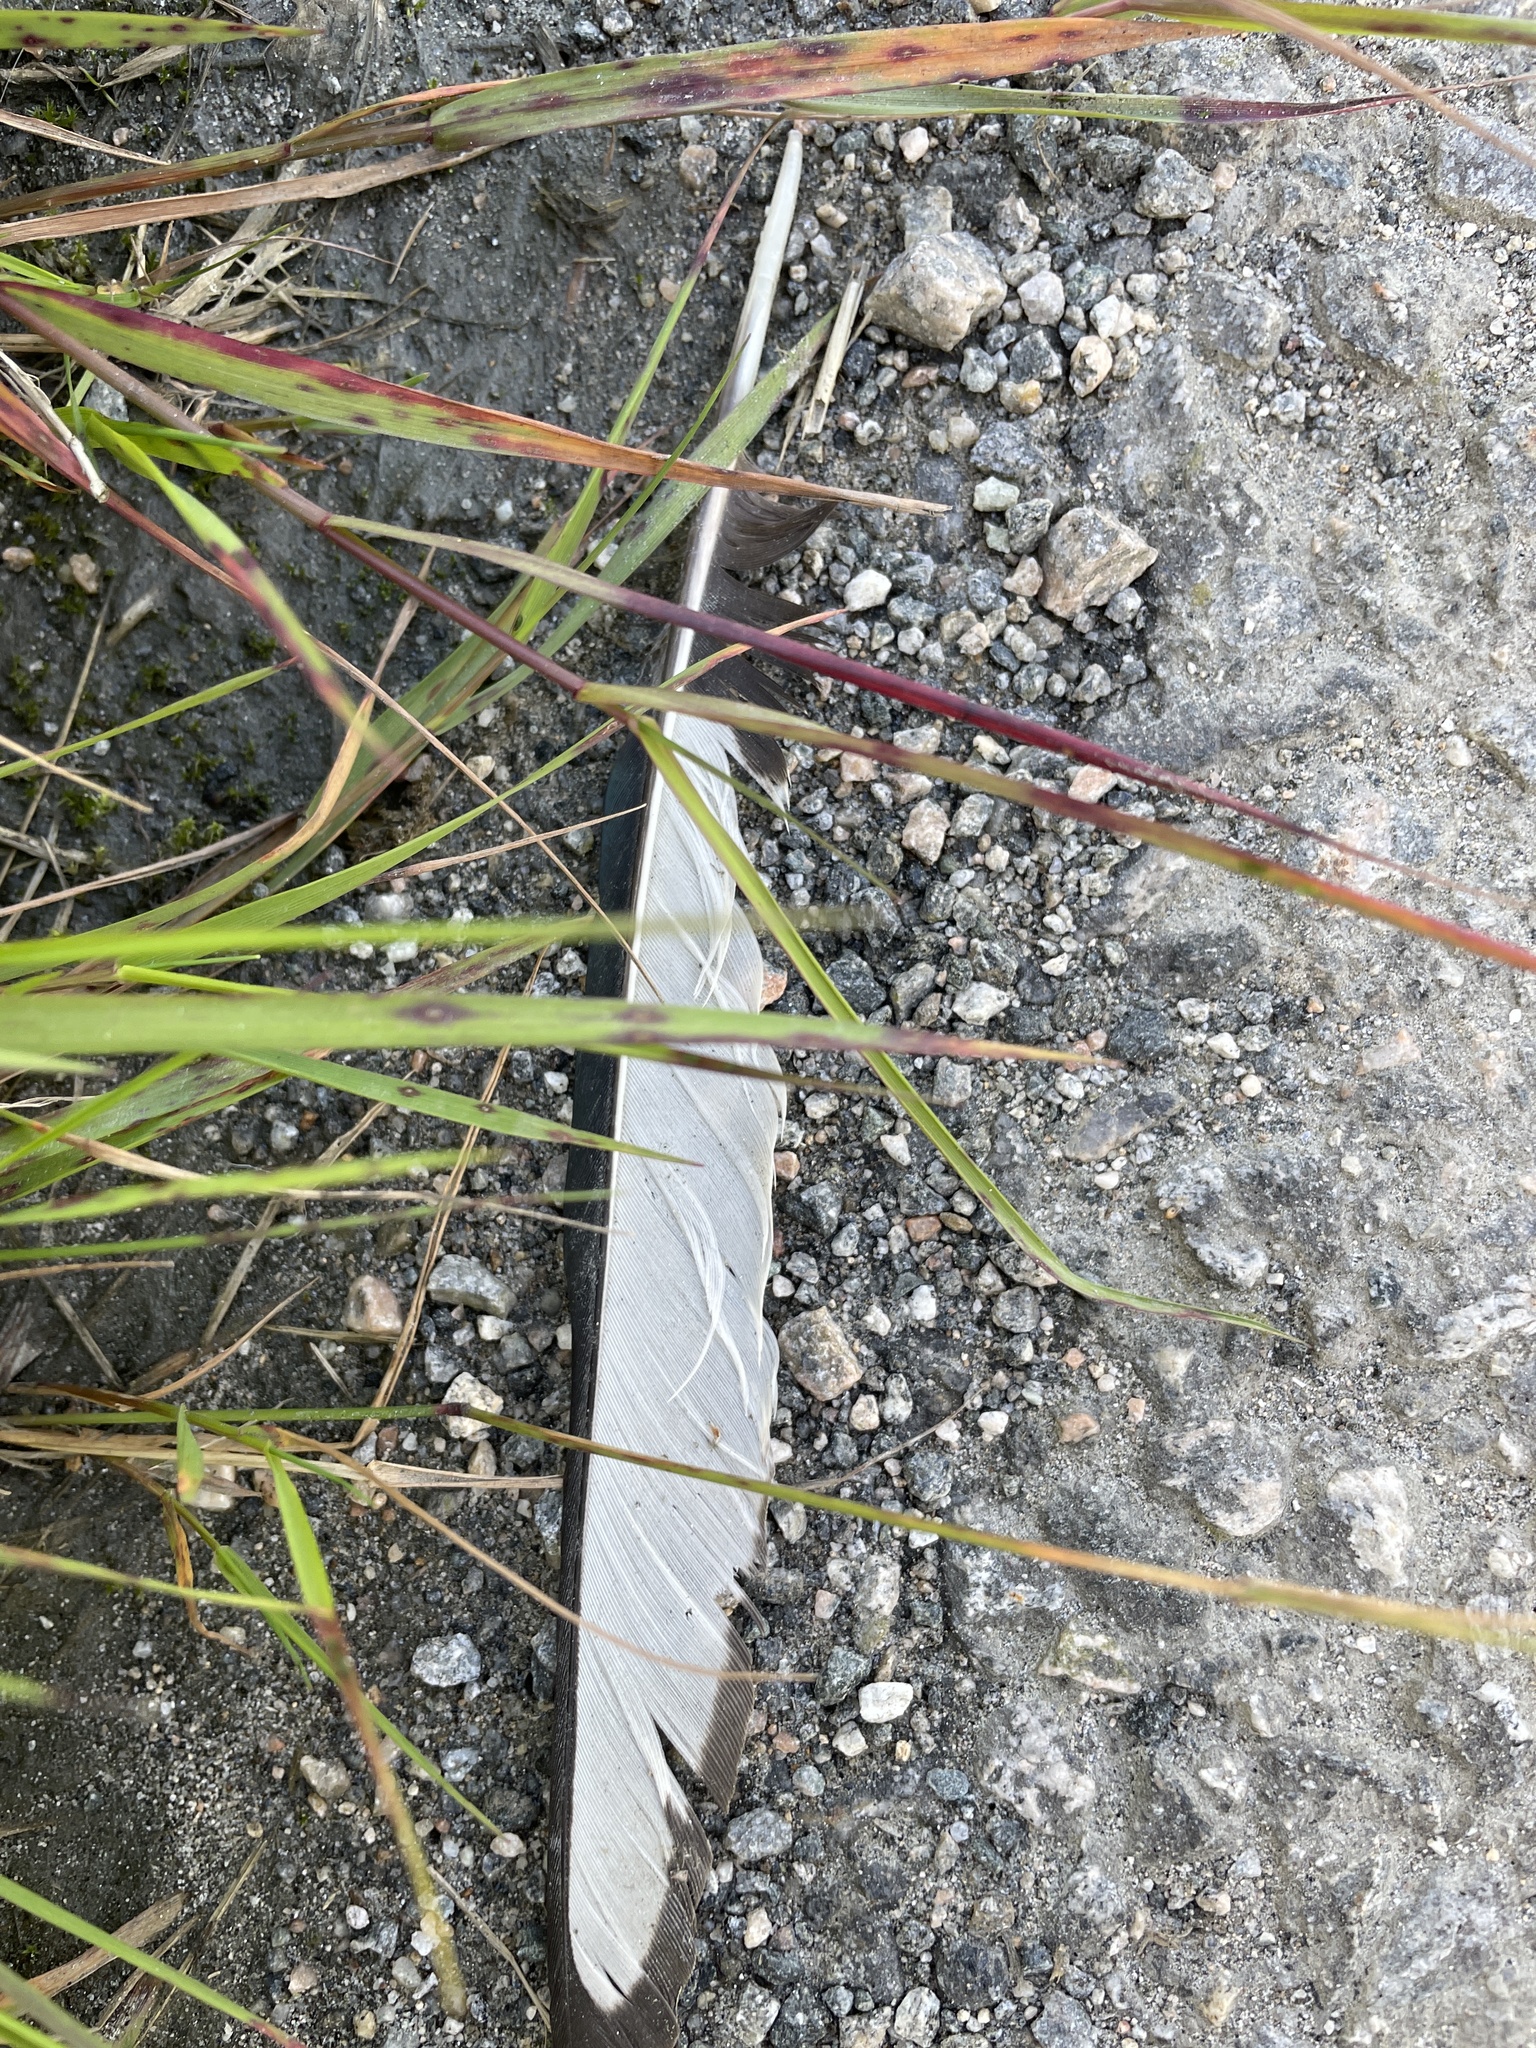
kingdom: Animalia
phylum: Chordata
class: Aves
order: Passeriformes
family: Corvidae
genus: Pica
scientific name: Pica pica
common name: Eurasian magpie
